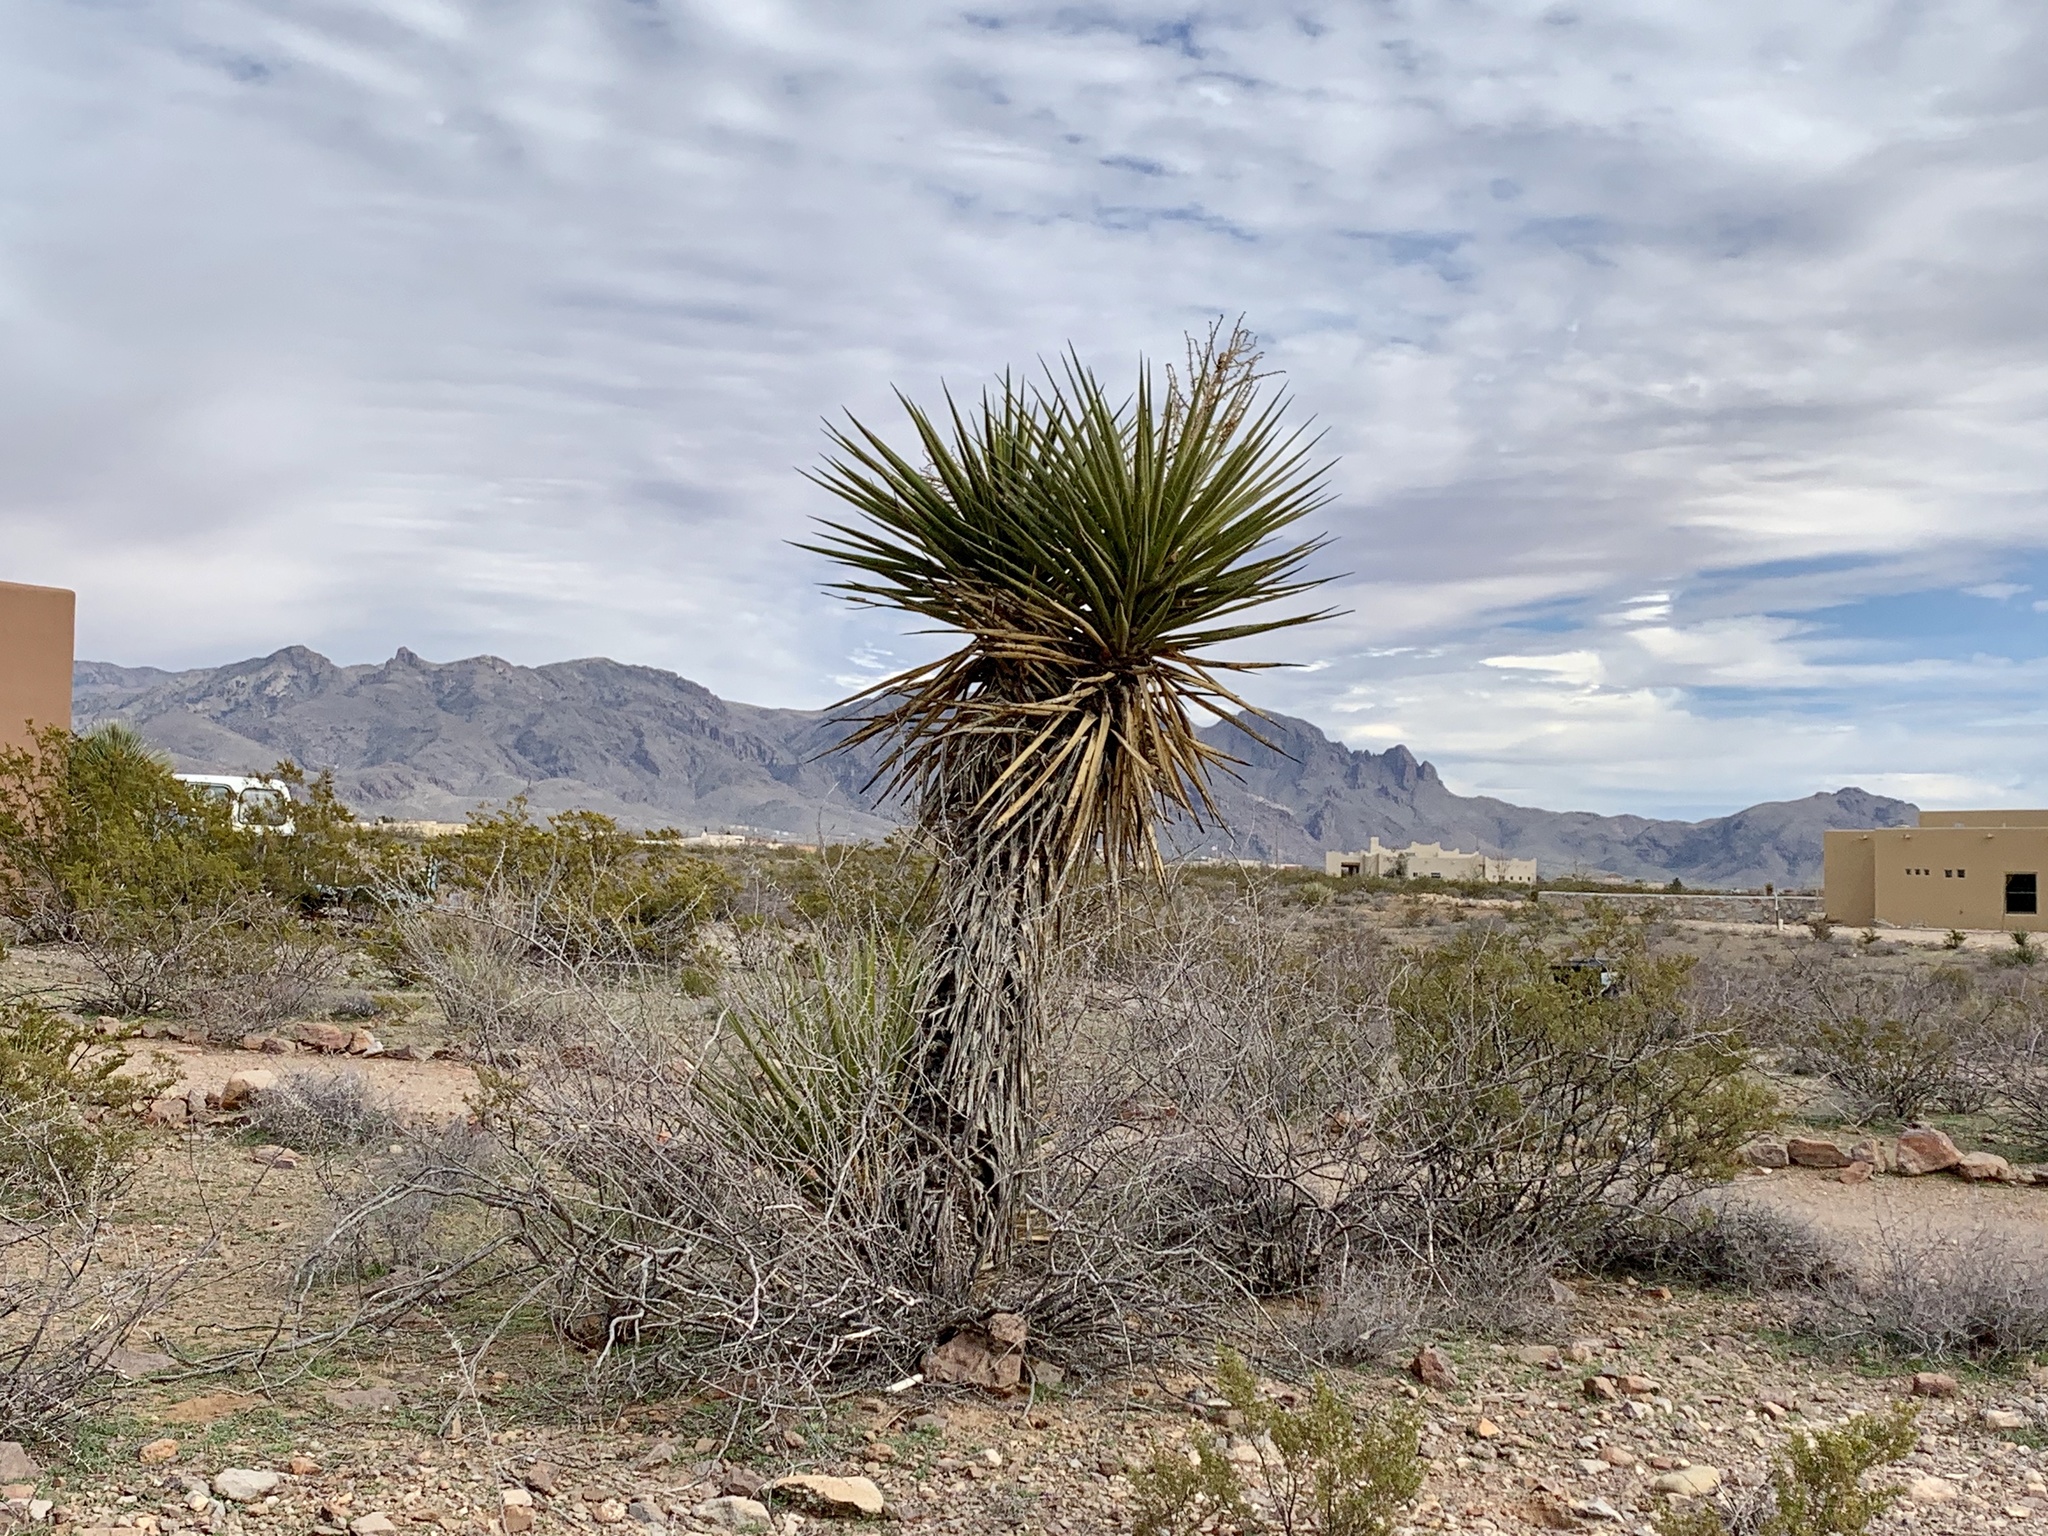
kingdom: Plantae
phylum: Tracheophyta
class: Liliopsida
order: Asparagales
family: Asparagaceae
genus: Yucca
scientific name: Yucca treculiana
